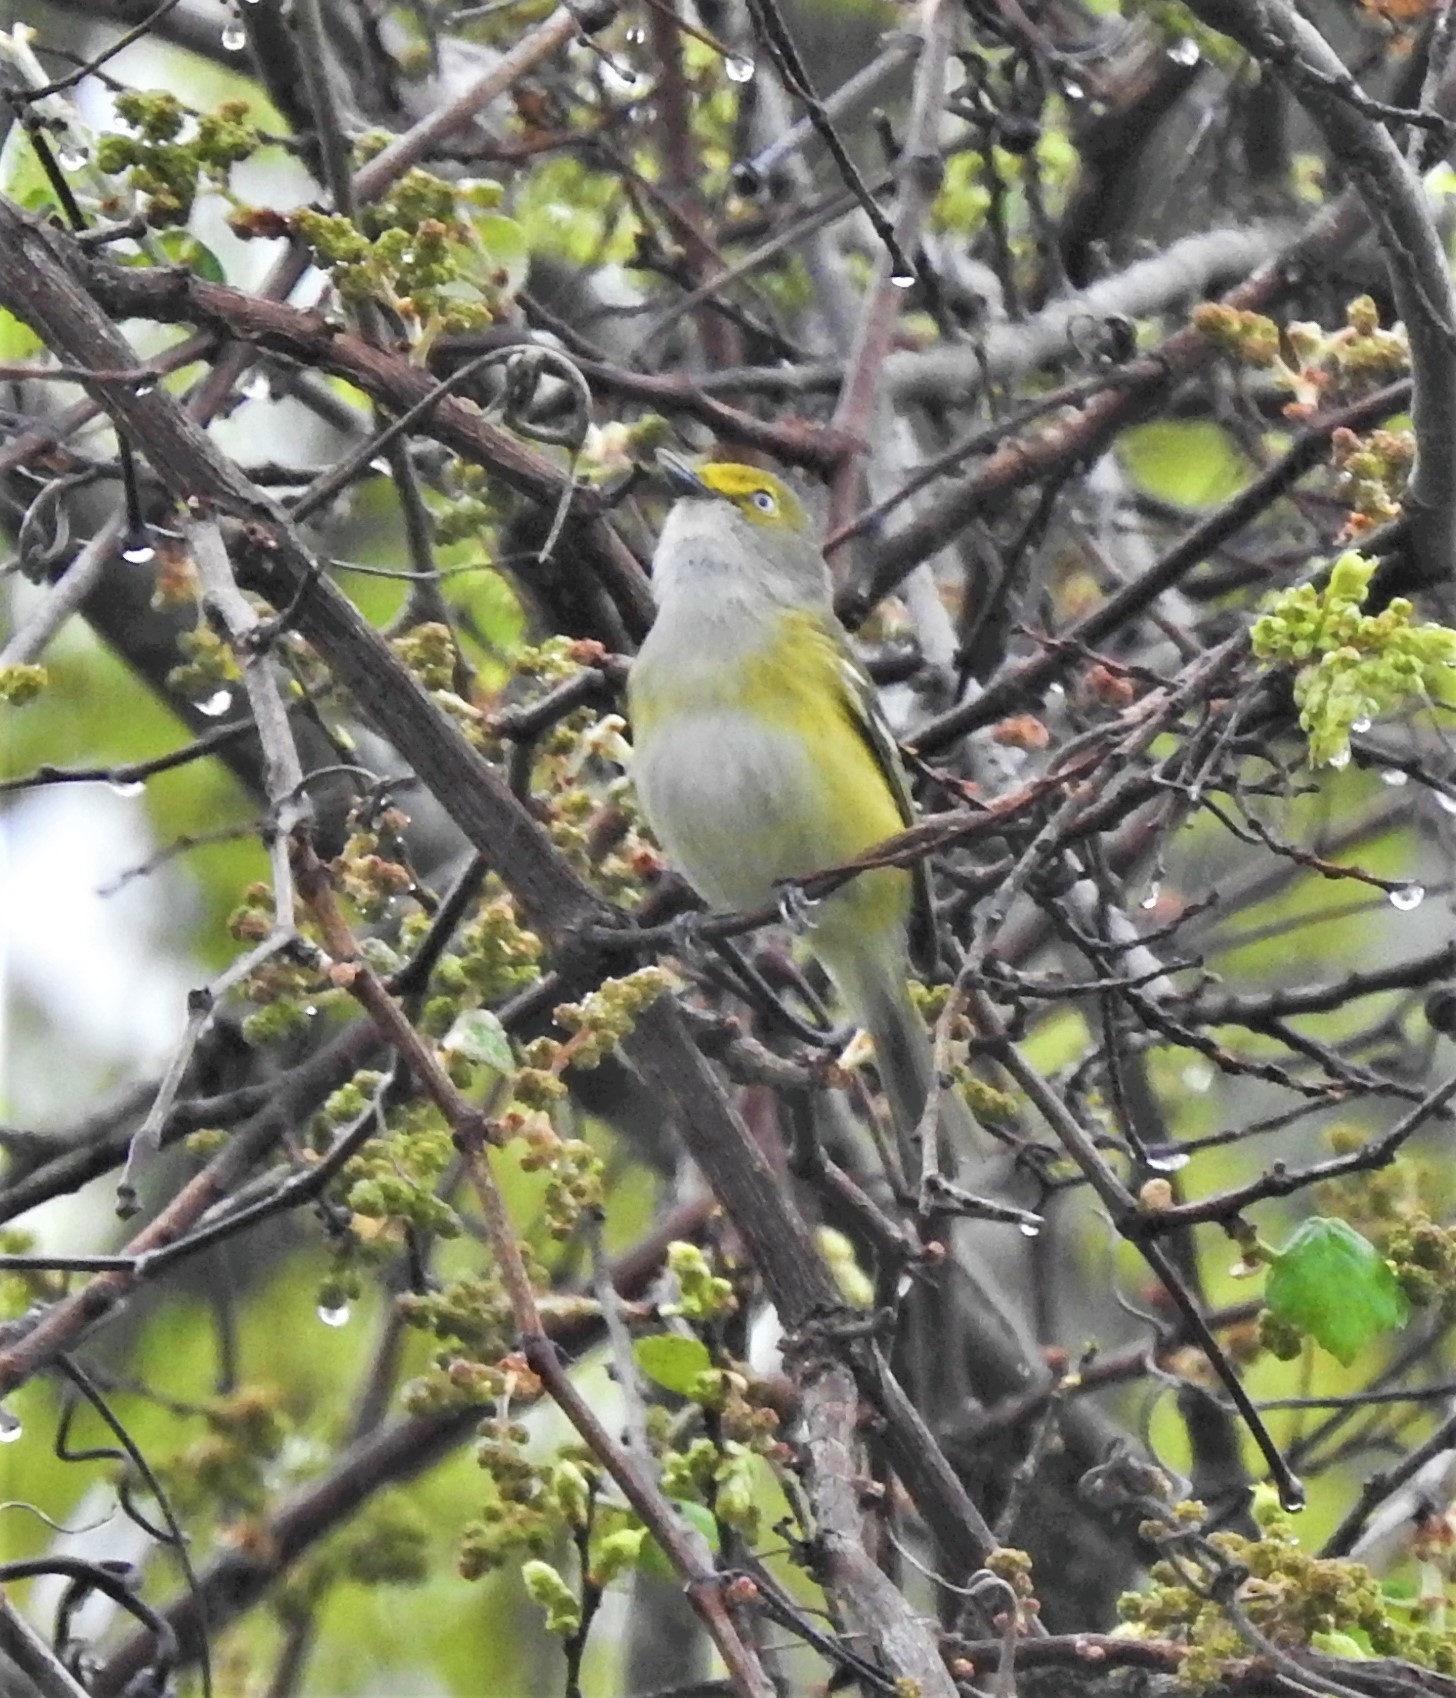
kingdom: Animalia
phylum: Chordata
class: Aves
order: Passeriformes
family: Vireonidae
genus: Vireo
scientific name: Vireo griseus
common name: White-eyed vireo
